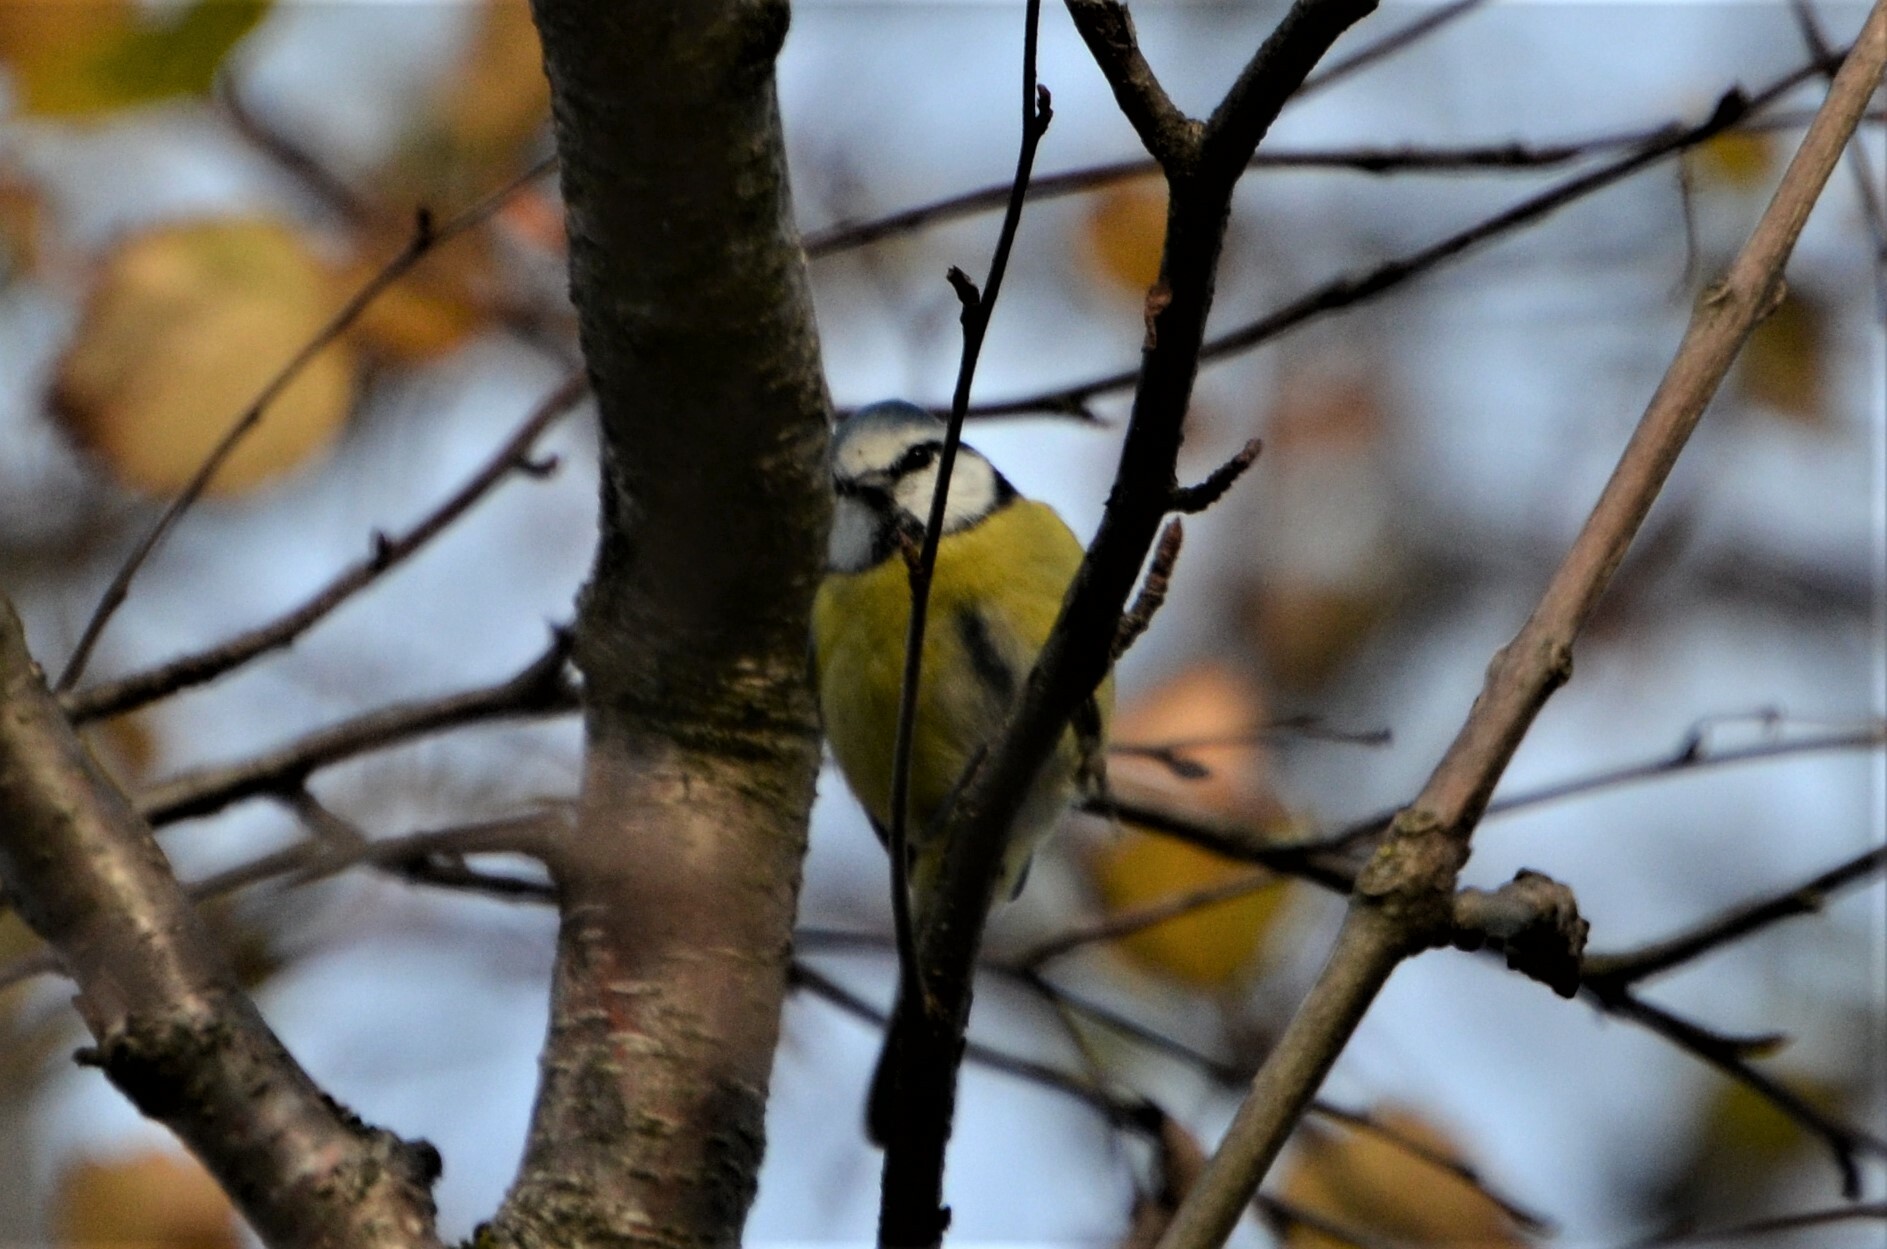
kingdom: Animalia
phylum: Chordata
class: Aves
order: Passeriformes
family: Paridae
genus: Cyanistes
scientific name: Cyanistes caeruleus
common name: Eurasian blue tit
